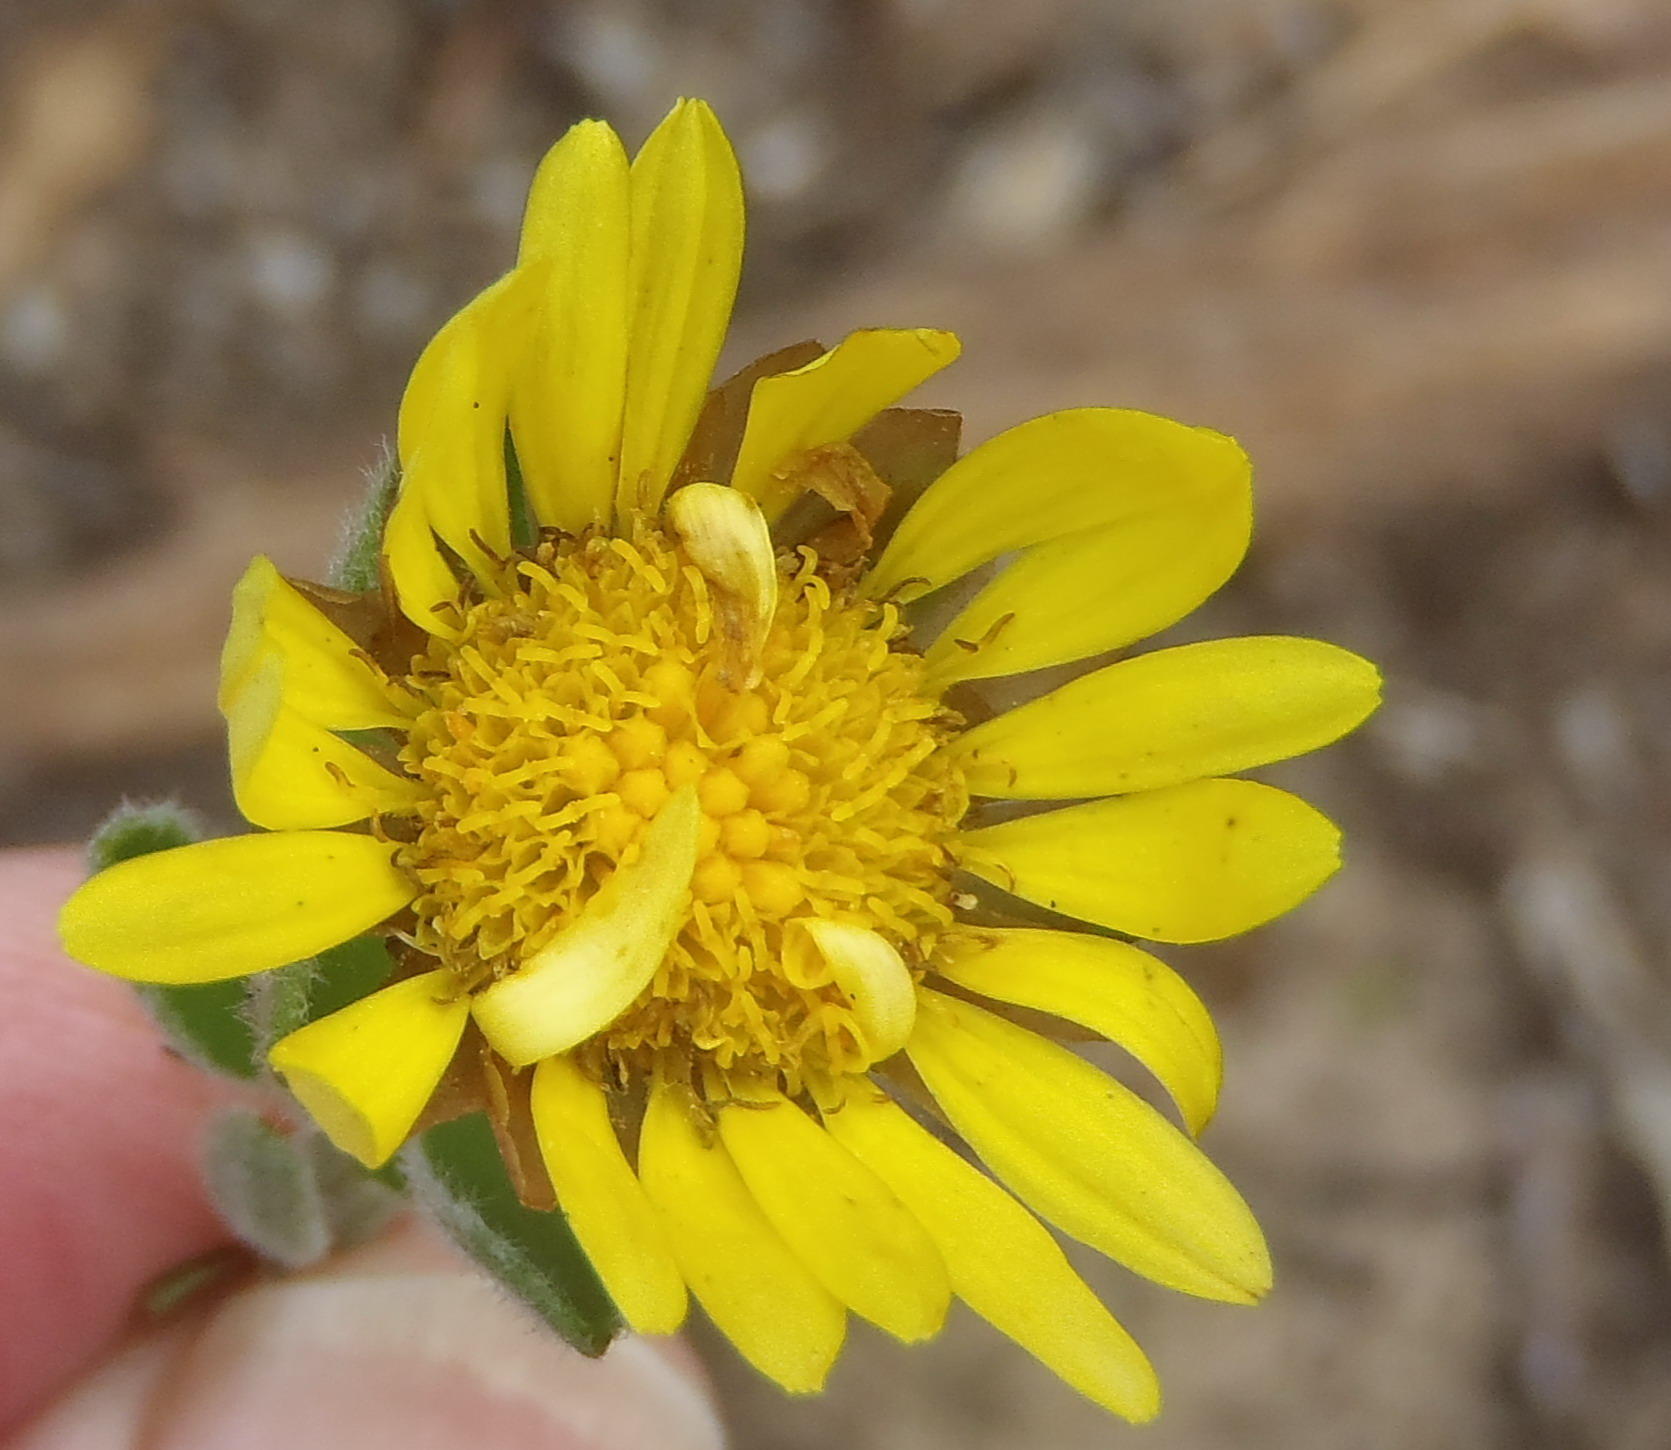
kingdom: Plantae
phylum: Tracheophyta
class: Magnoliopsida
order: Asterales
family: Asteraceae
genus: Oedera
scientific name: Oedera calycina
